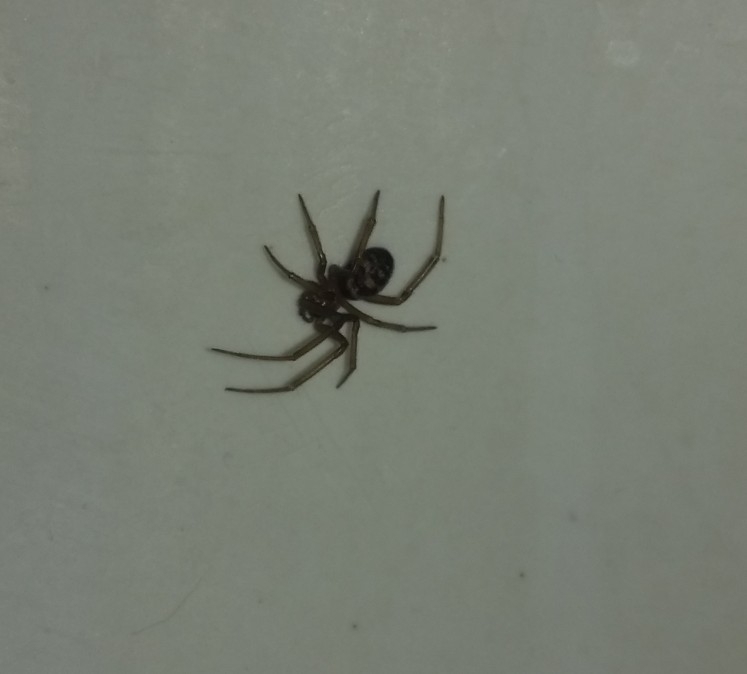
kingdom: Animalia
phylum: Arthropoda
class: Arachnida
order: Araneae
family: Theridiidae
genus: Steatoda
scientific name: Steatoda grossa
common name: False black widow
